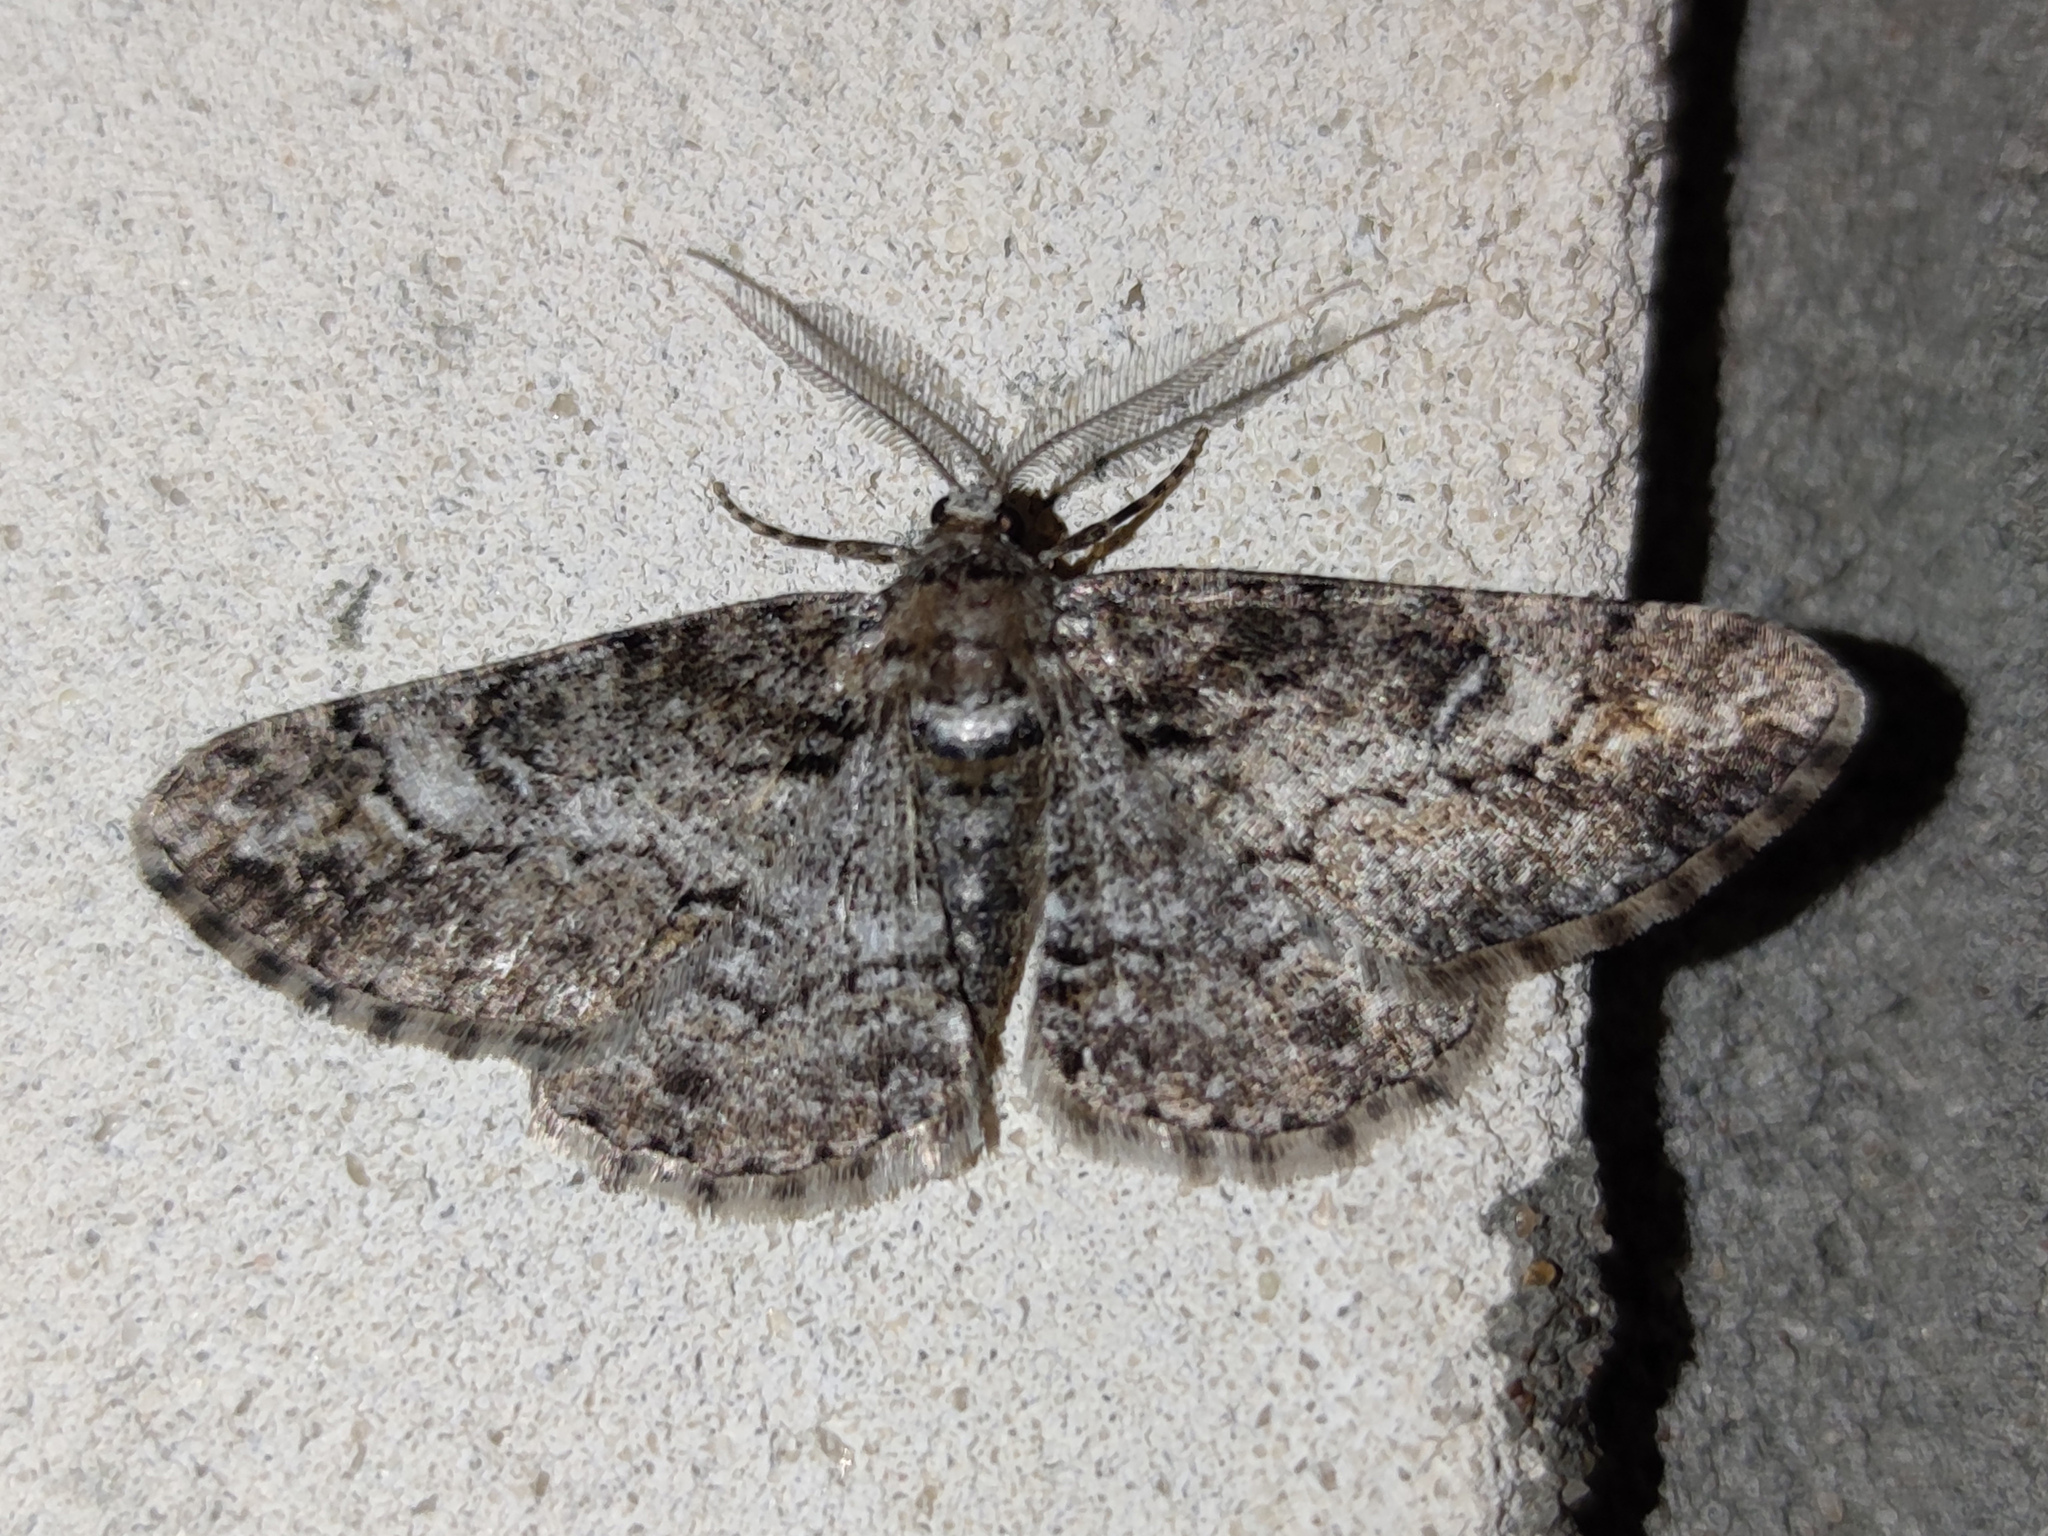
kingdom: Animalia
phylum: Arthropoda
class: Insecta
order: Lepidoptera
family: Geometridae
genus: Cleora
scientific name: Cleora cinctaria
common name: Ringed carpet
